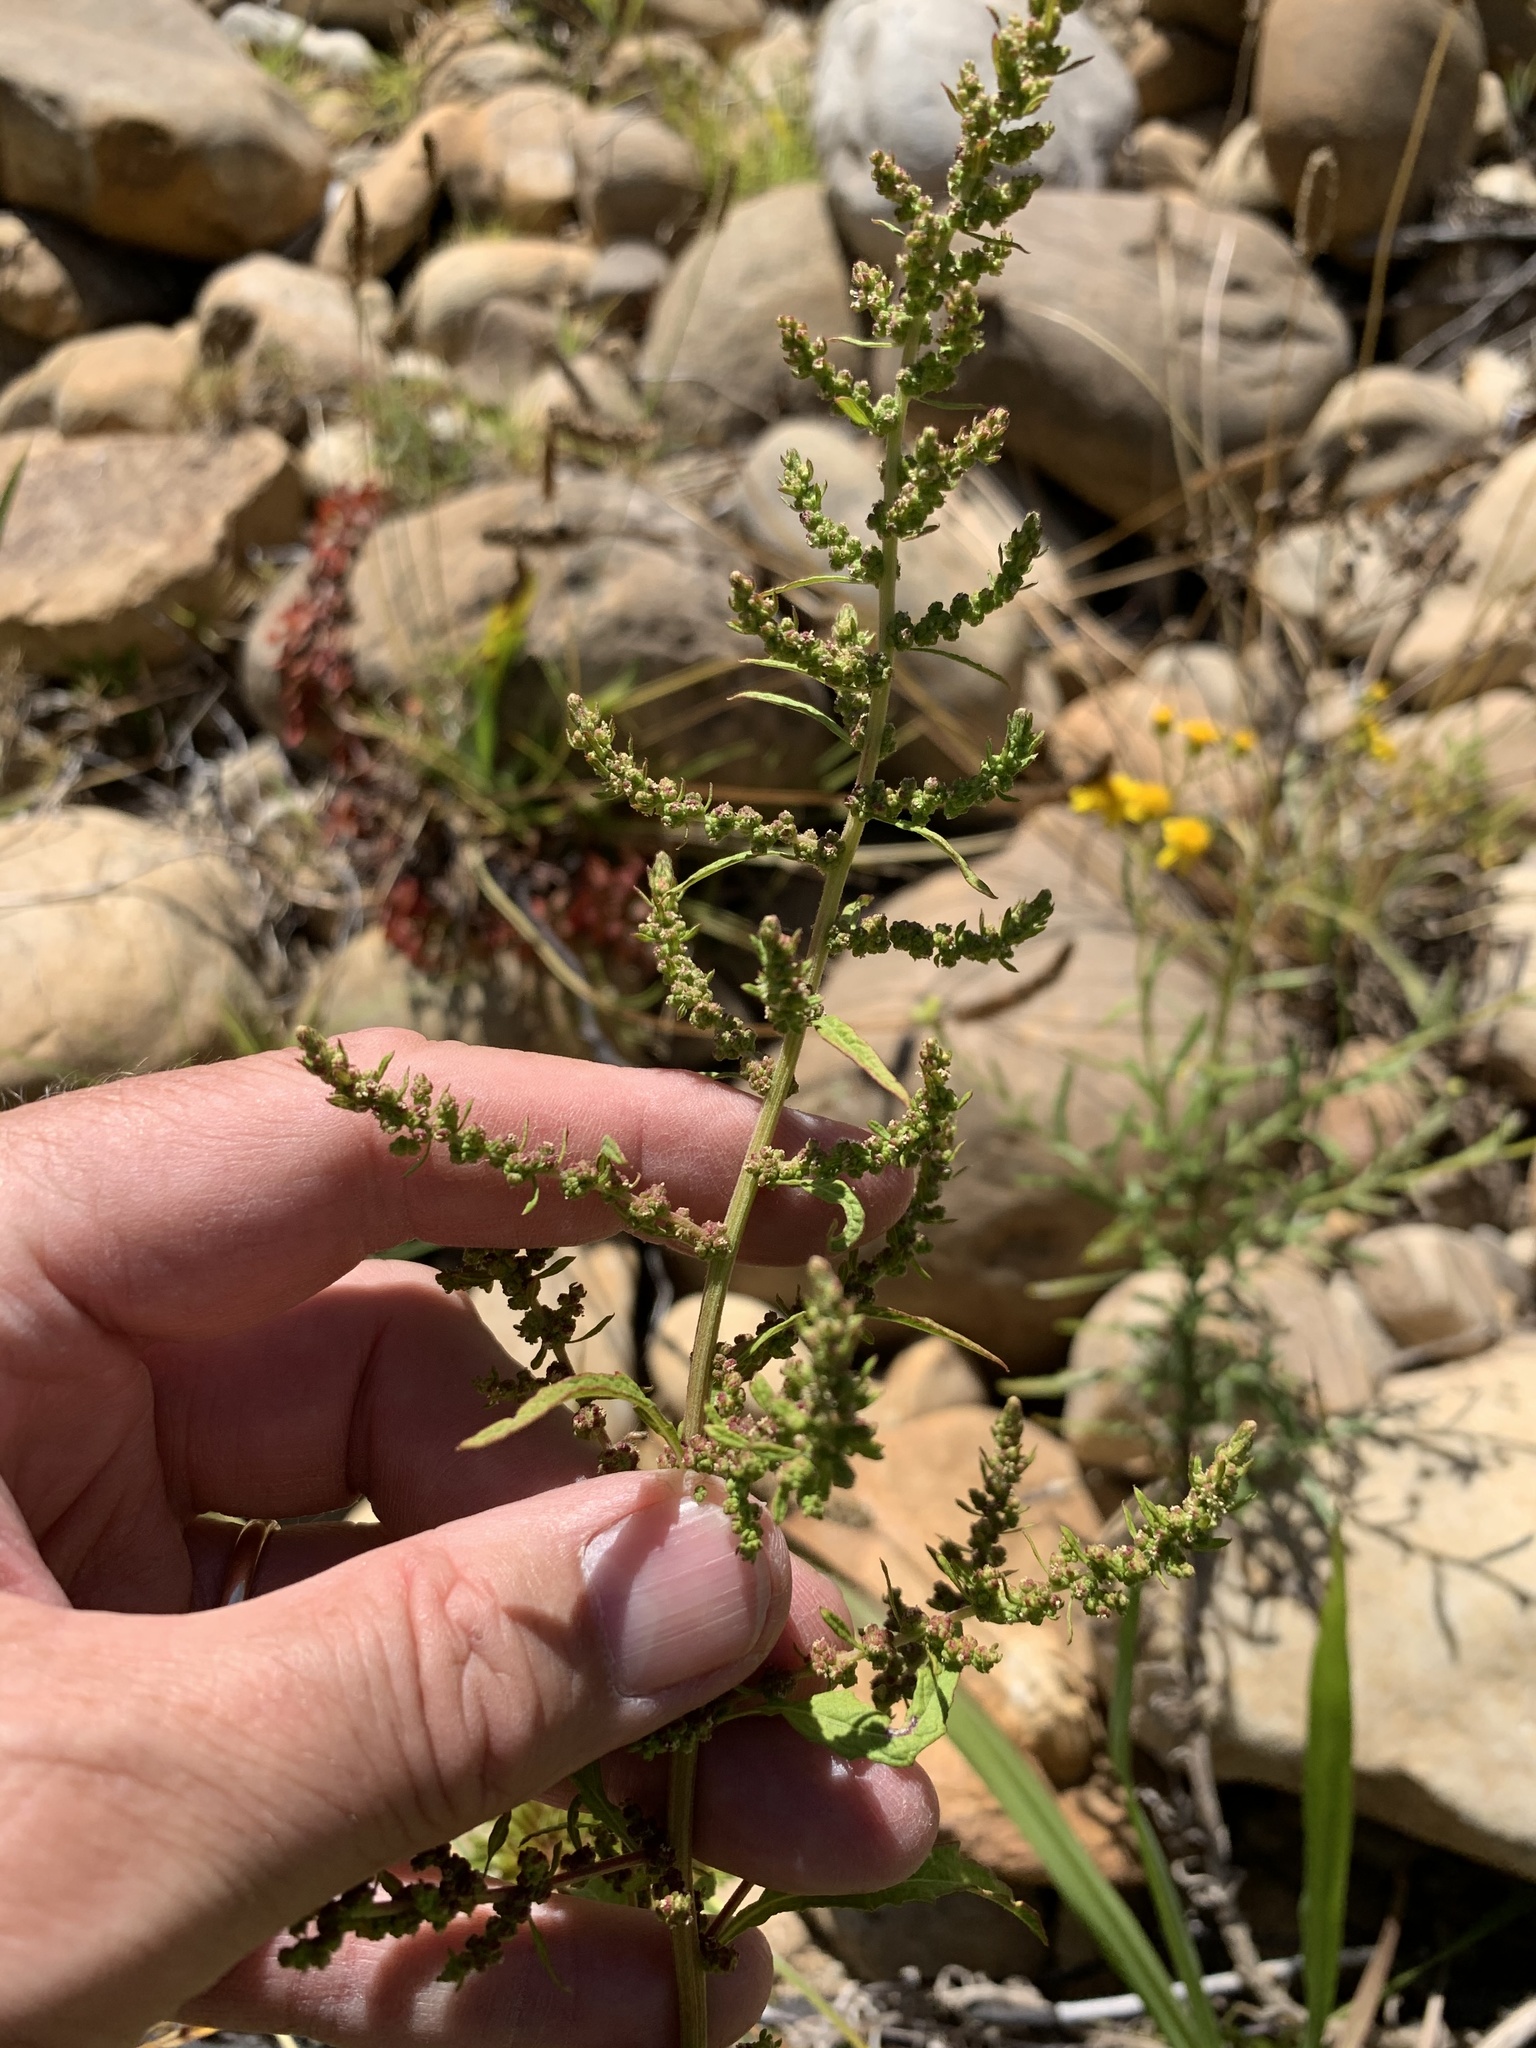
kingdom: Plantae
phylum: Tracheophyta
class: Magnoliopsida
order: Caryophyllales
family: Amaranthaceae
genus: Dysphania
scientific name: Dysphania ambrosioides
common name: Wormseed
